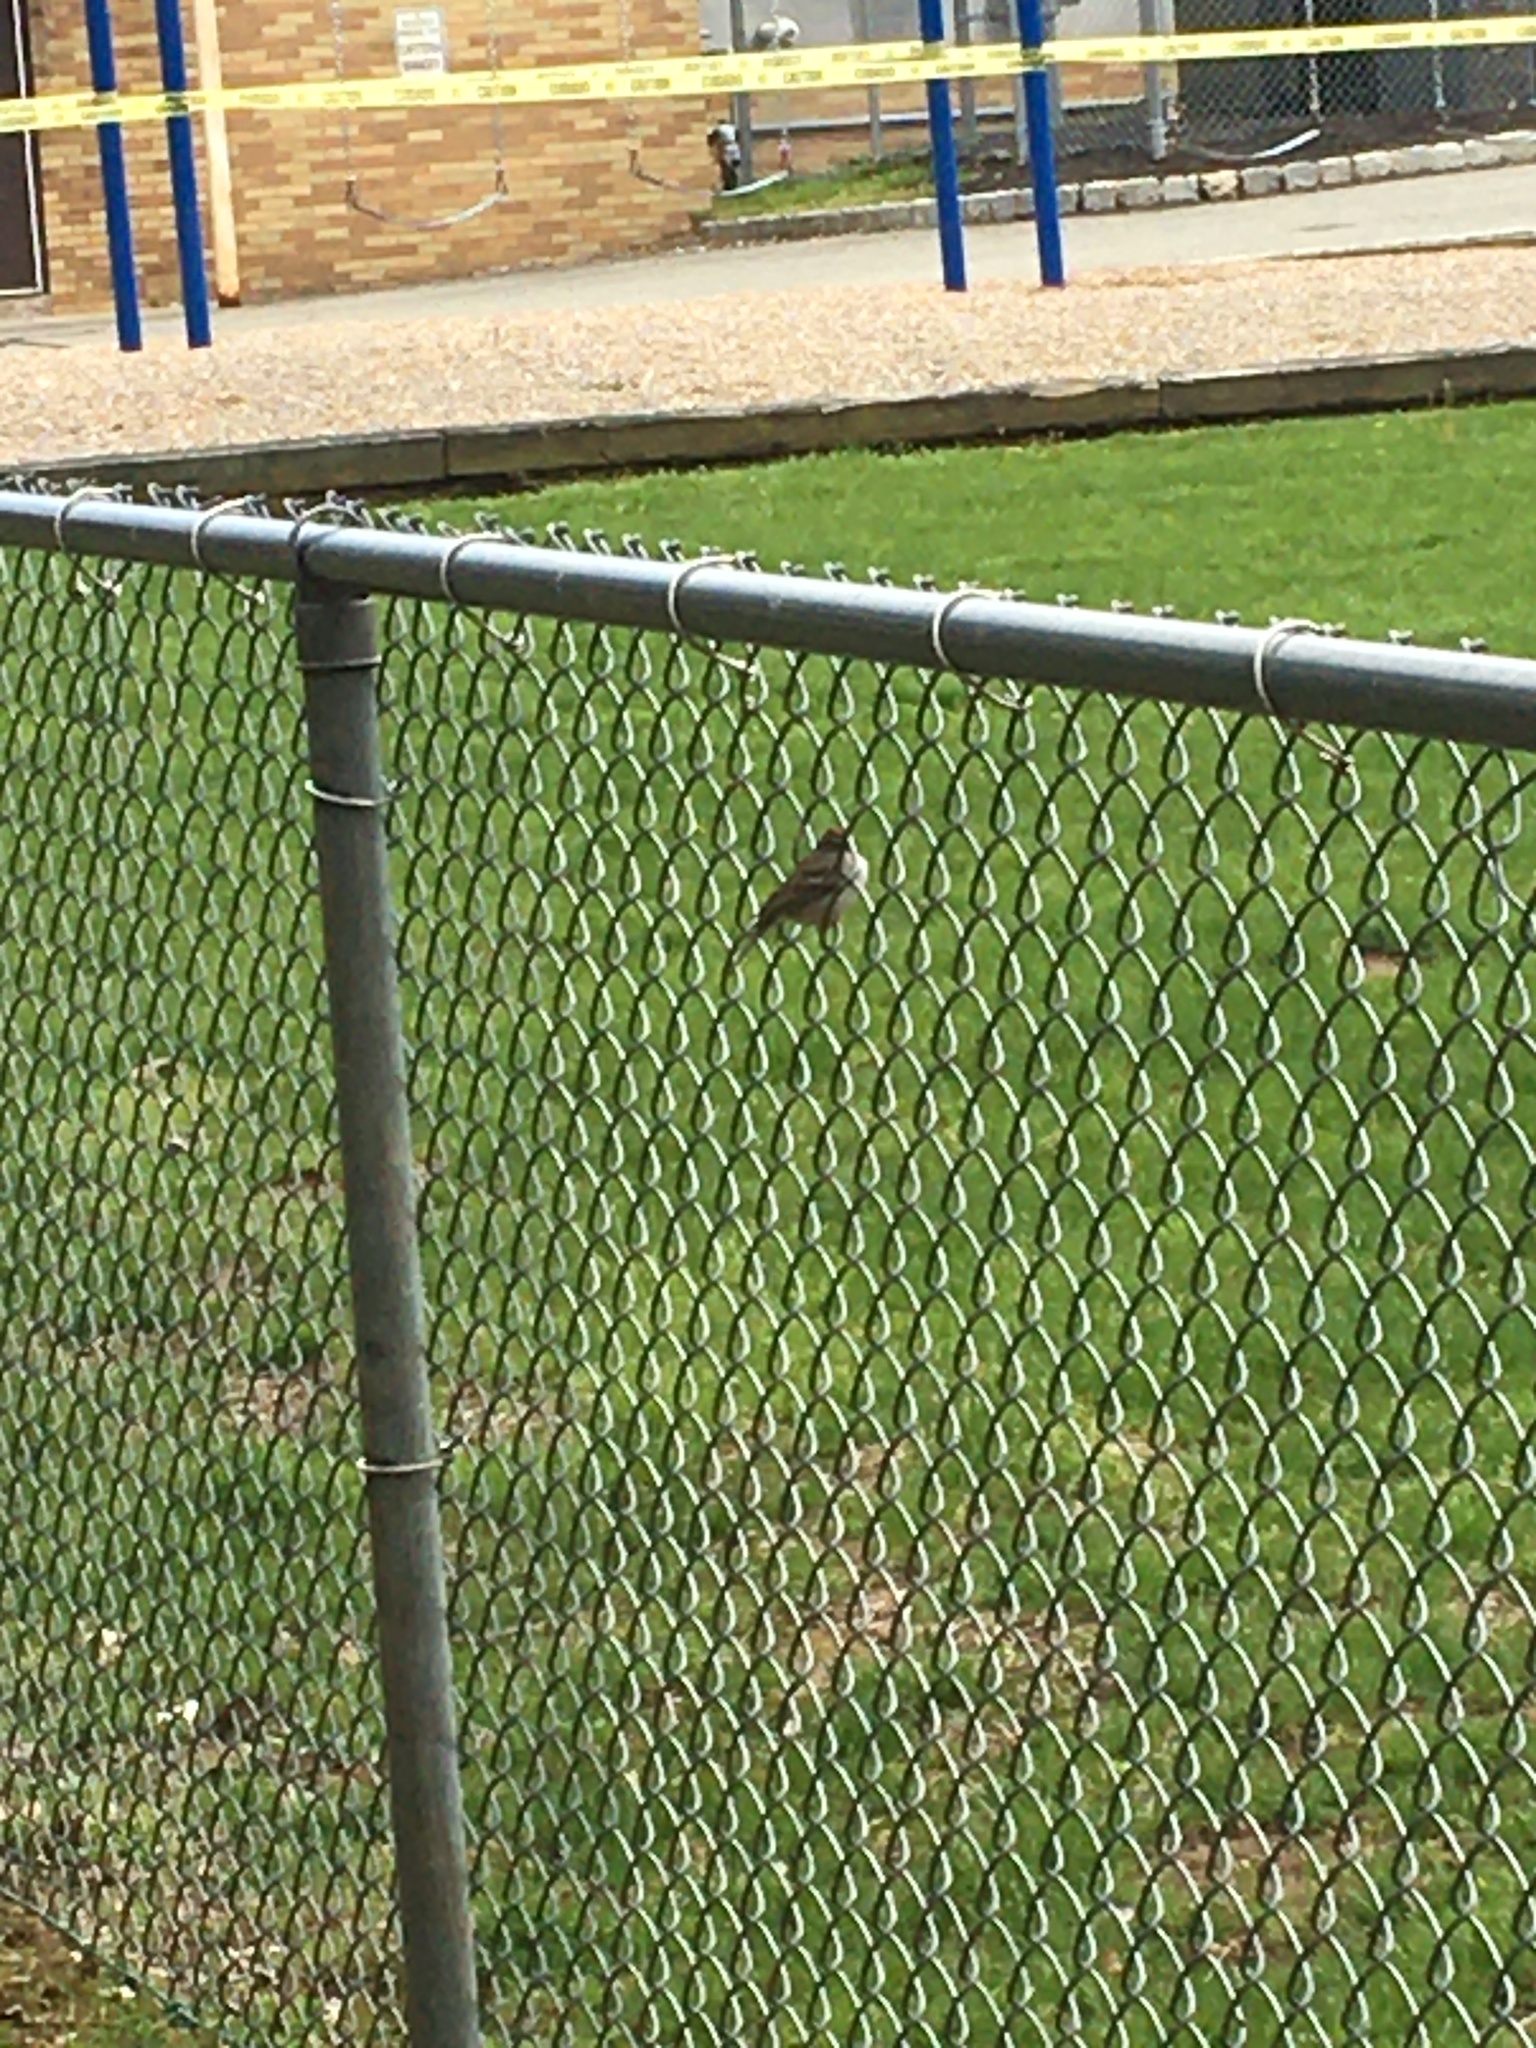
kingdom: Animalia
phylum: Chordata
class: Aves
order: Passeriformes
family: Passerellidae
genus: Spizella
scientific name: Spizella passerina
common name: Chipping sparrow
